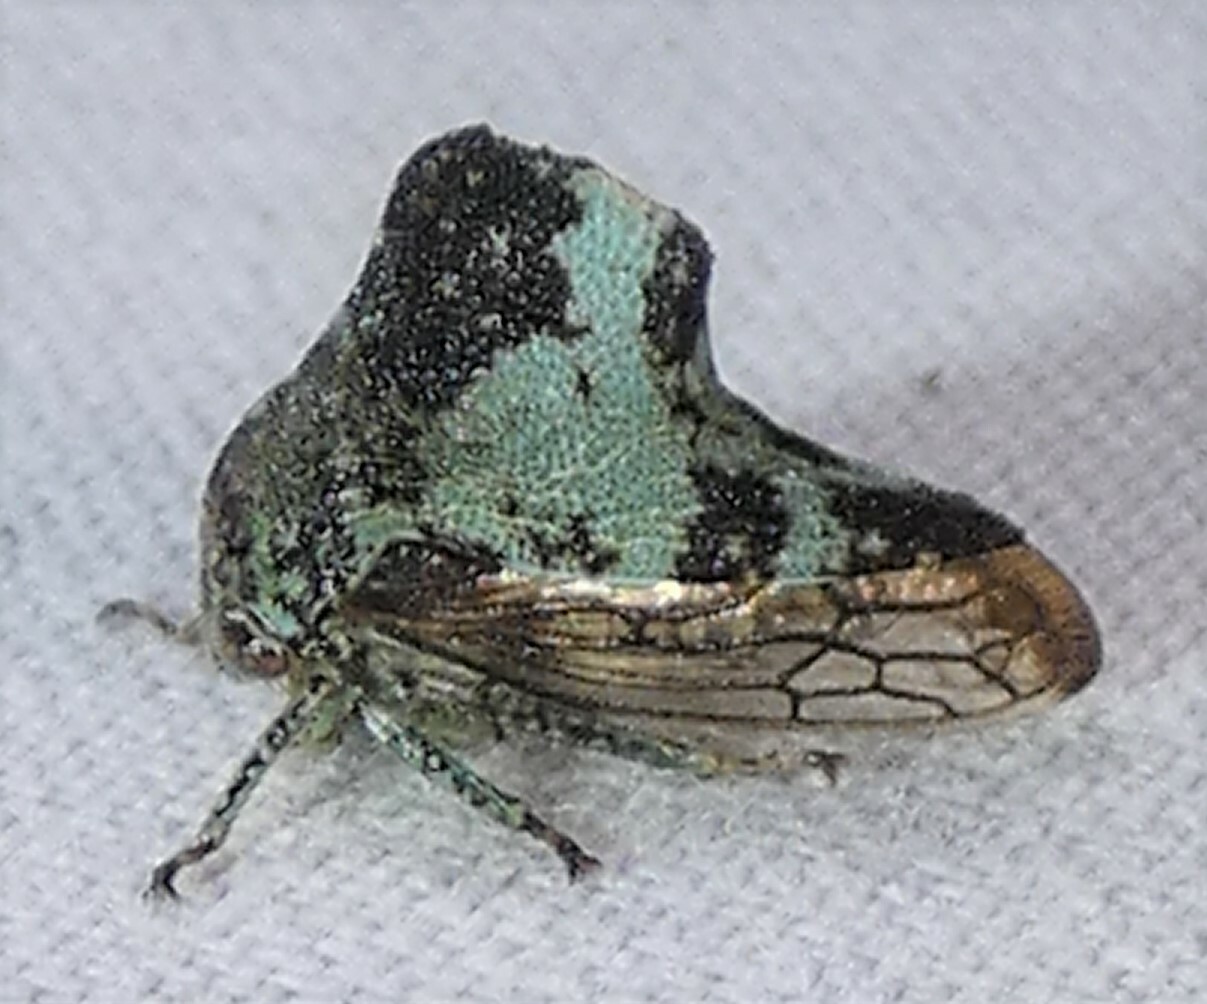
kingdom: Animalia
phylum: Arthropoda
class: Insecta
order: Hemiptera
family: Membracidae
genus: Telamona
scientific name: Telamona concava
